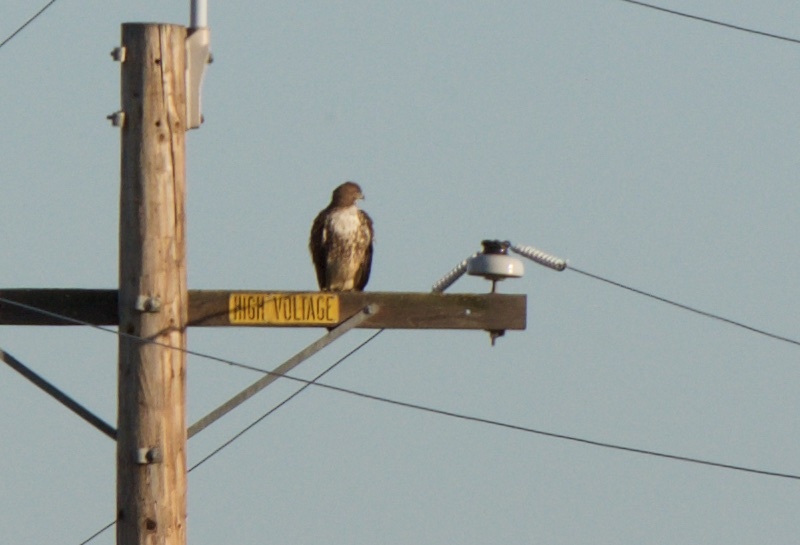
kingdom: Animalia
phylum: Chordata
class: Aves
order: Accipitriformes
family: Accipitridae
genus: Buteo
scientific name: Buteo jamaicensis
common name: Red-tailed hawk
